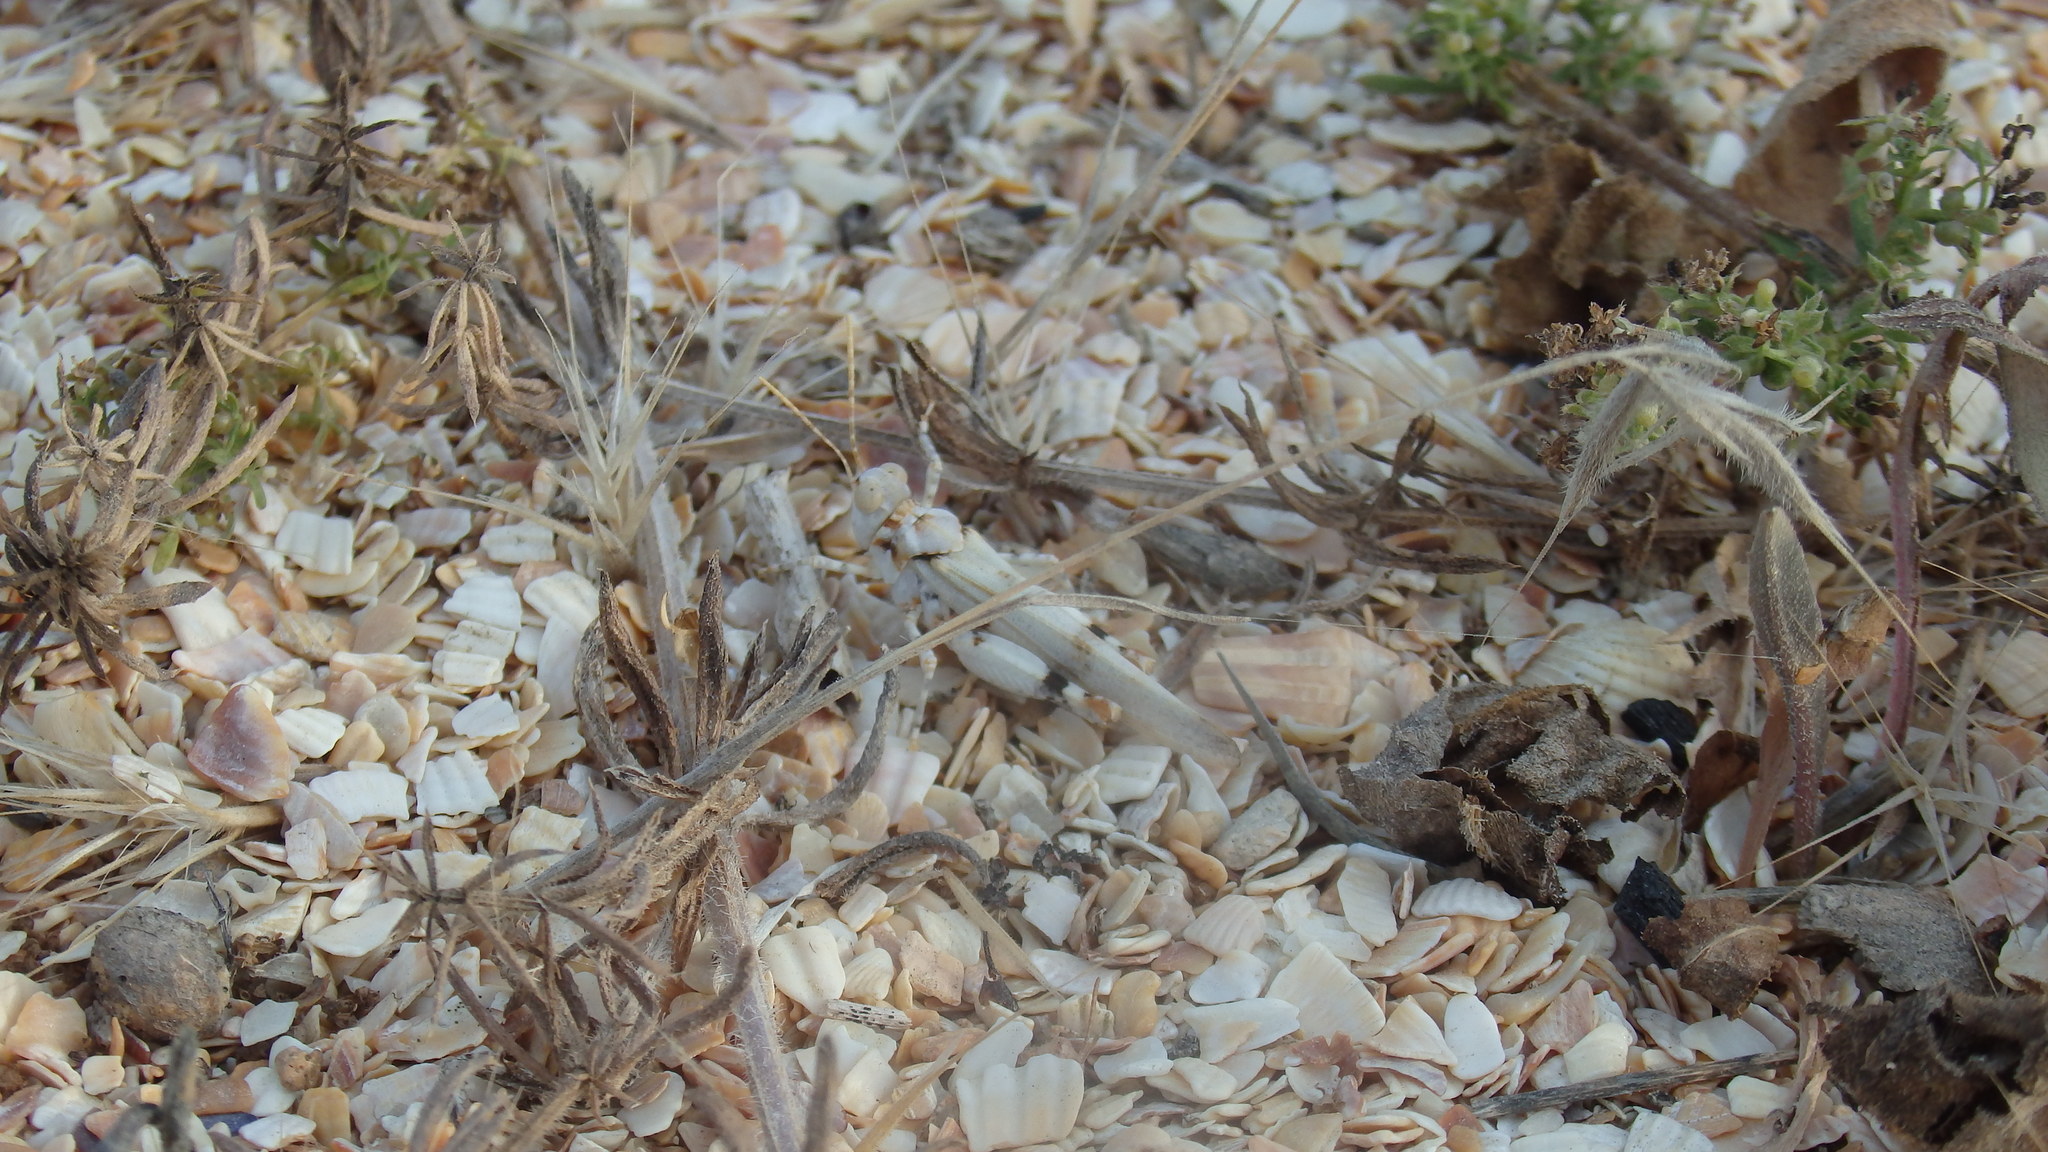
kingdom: Plantae
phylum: Tracheophyta
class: Magnoliopsida
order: Gentianales
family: Rubiaceae
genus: Galium
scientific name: Galium humifusum
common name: Spreading bedstraw
